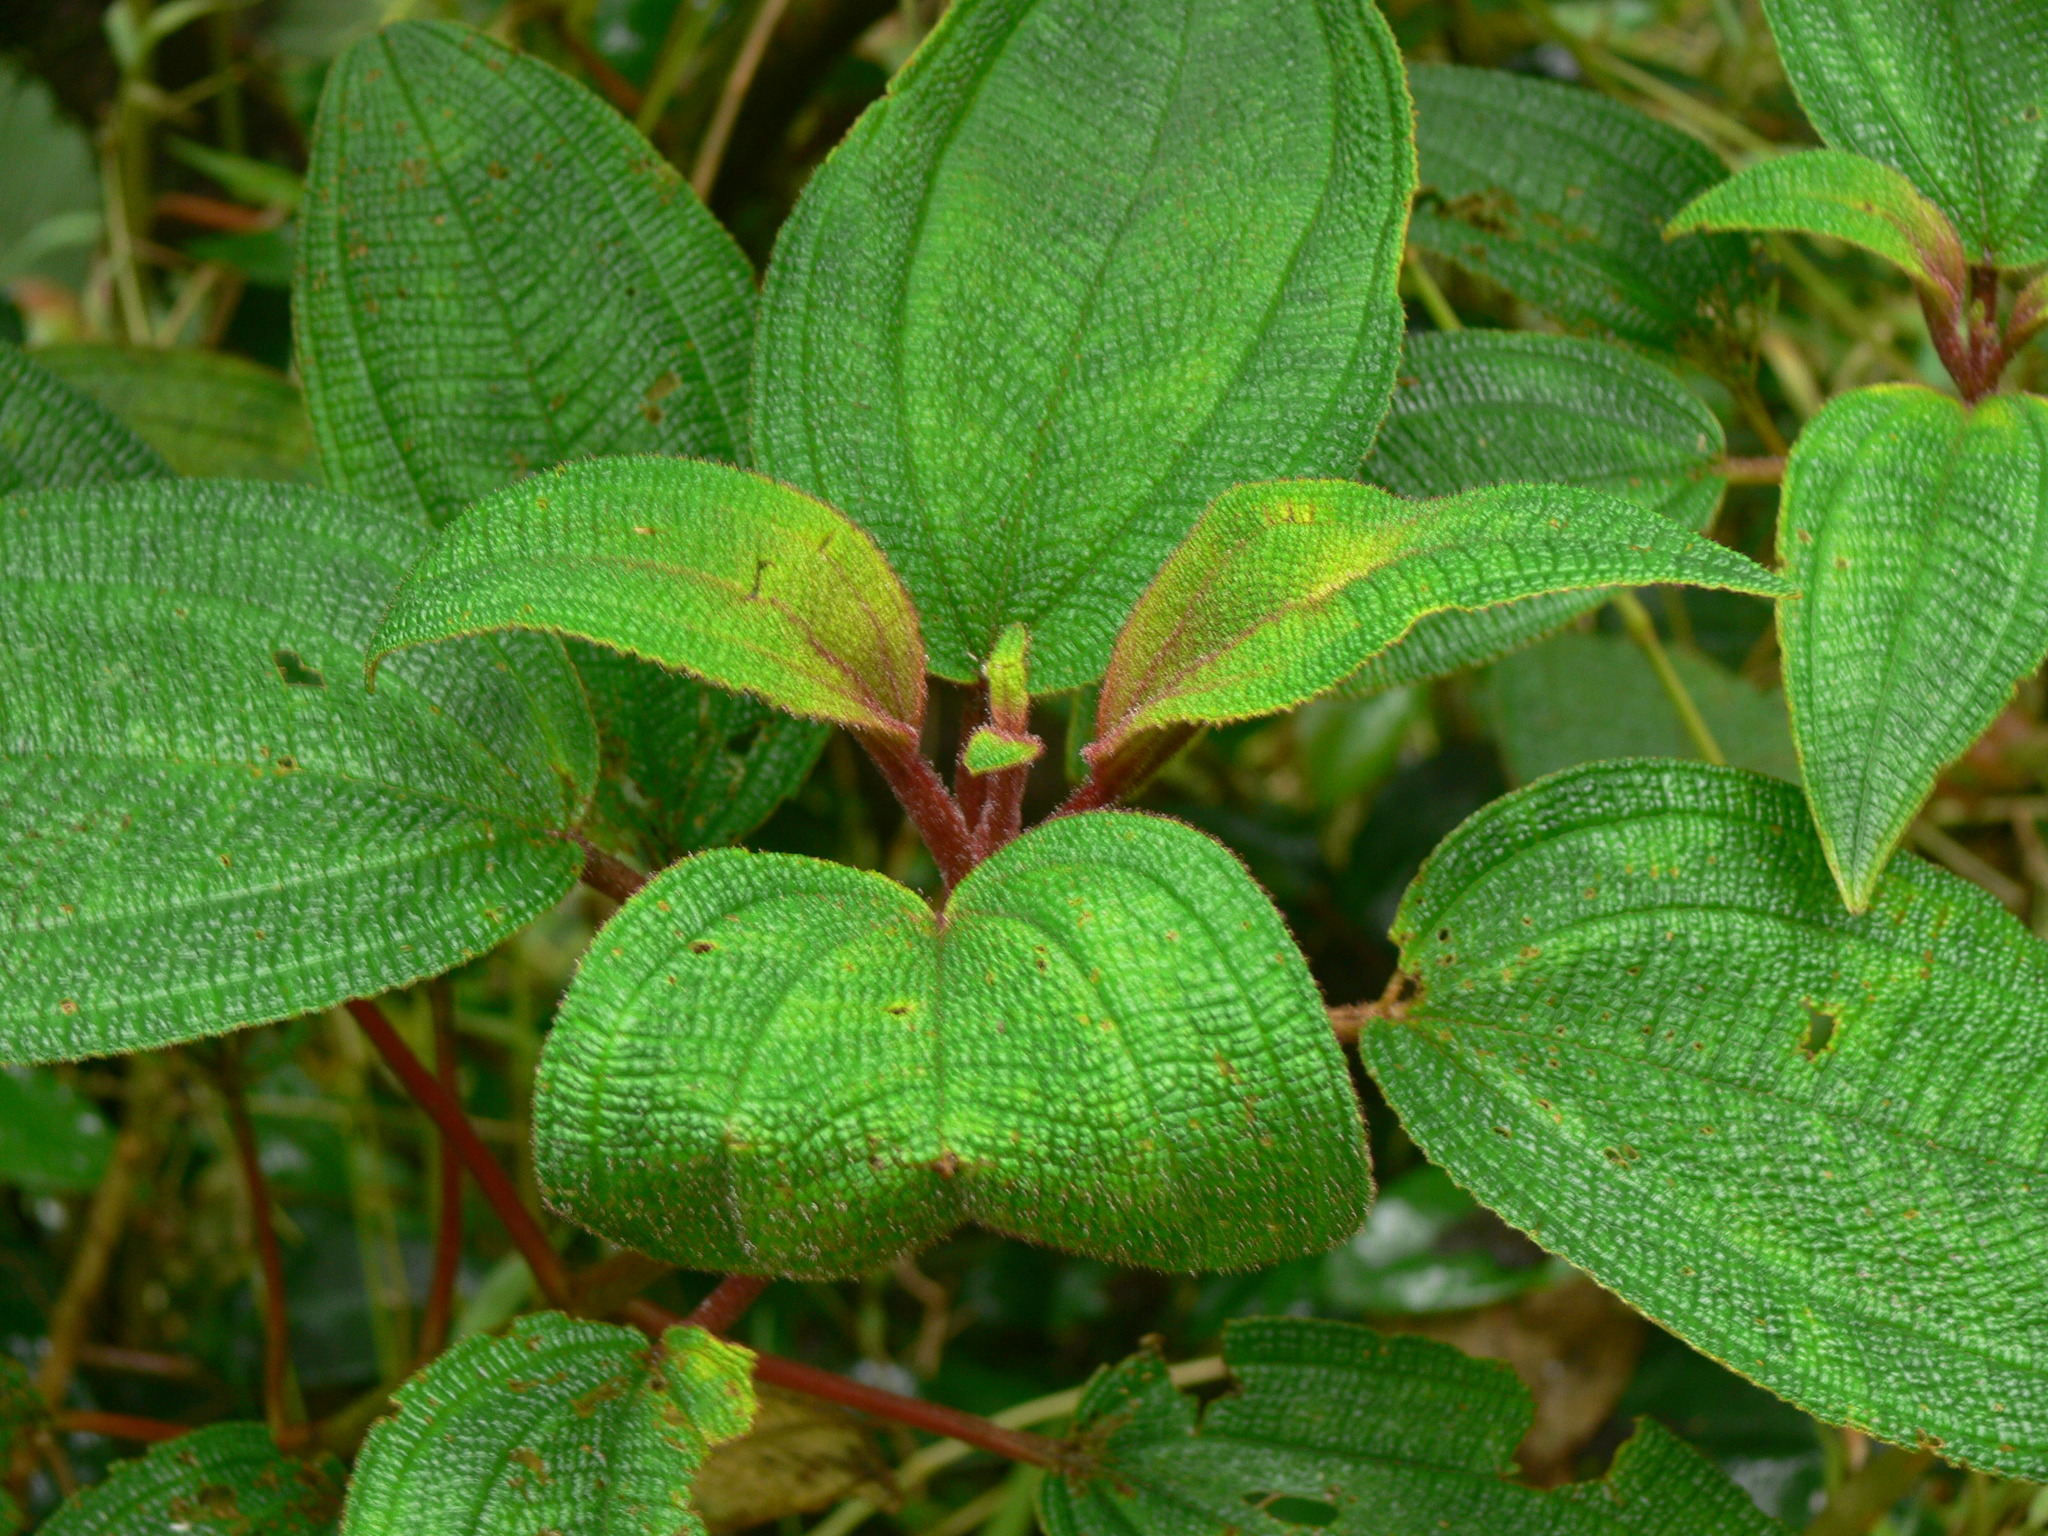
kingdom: Plantae
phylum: Tracheophyta
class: Magnoliopsida
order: Myrtales
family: Melastomataceae
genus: Miconia
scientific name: Miconia foveolata
